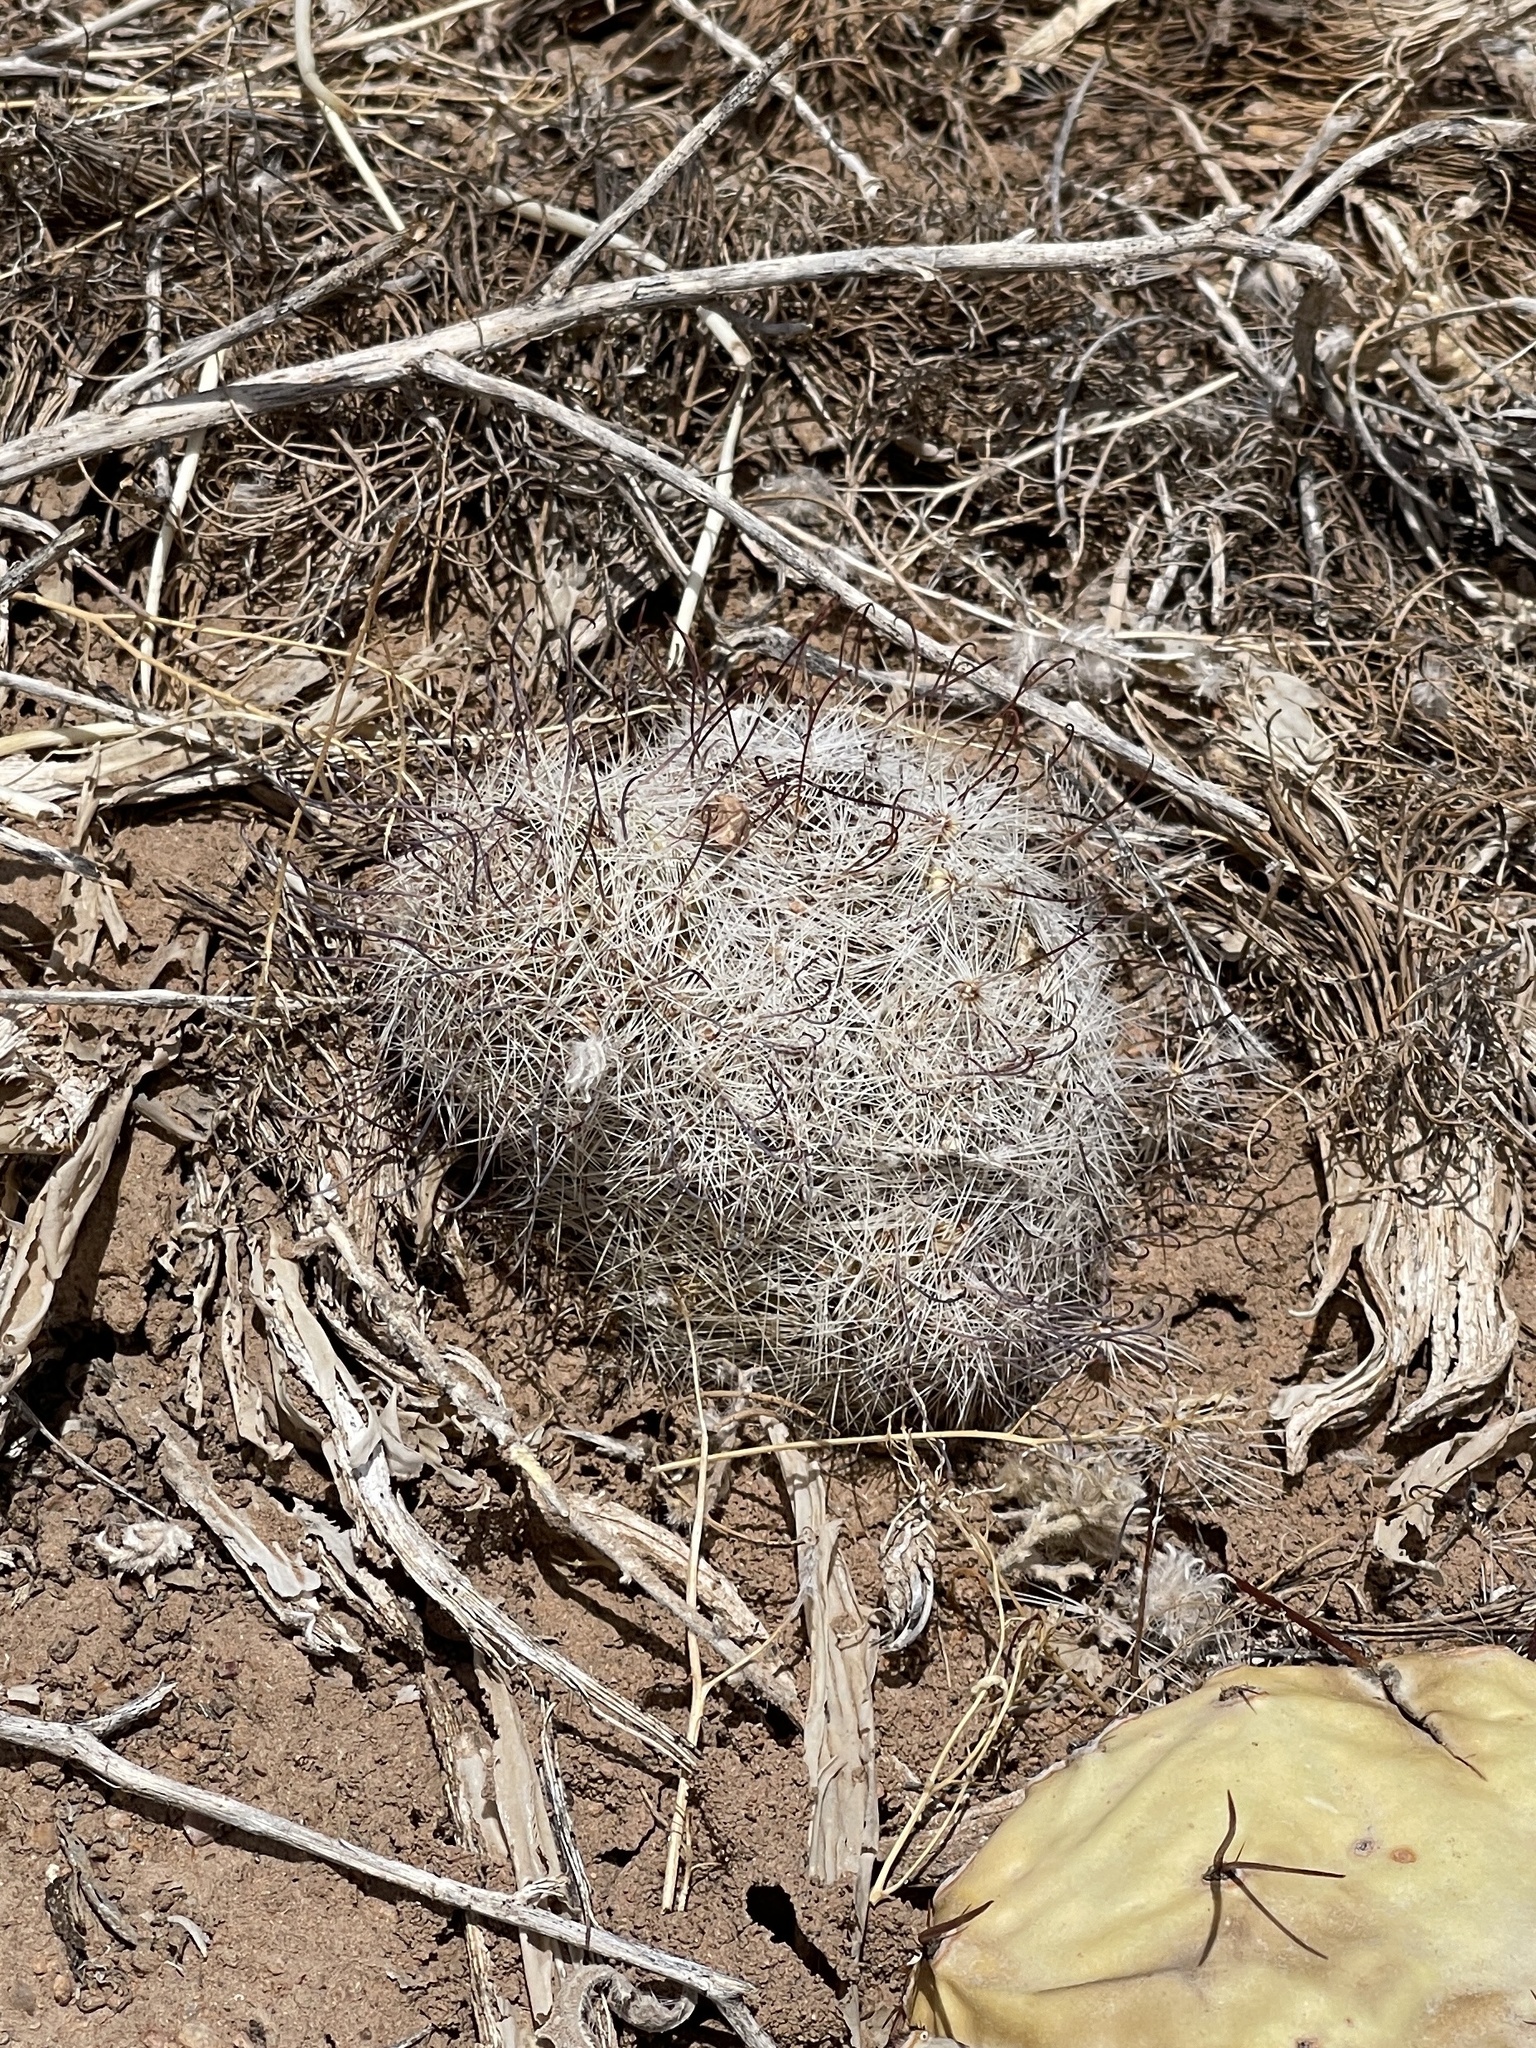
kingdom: Plantae
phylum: Tracheophyta
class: Magnoliopsida
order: Caryophyllales
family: Cactaceae
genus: Cochemiea
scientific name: Cochemiea grahamii
